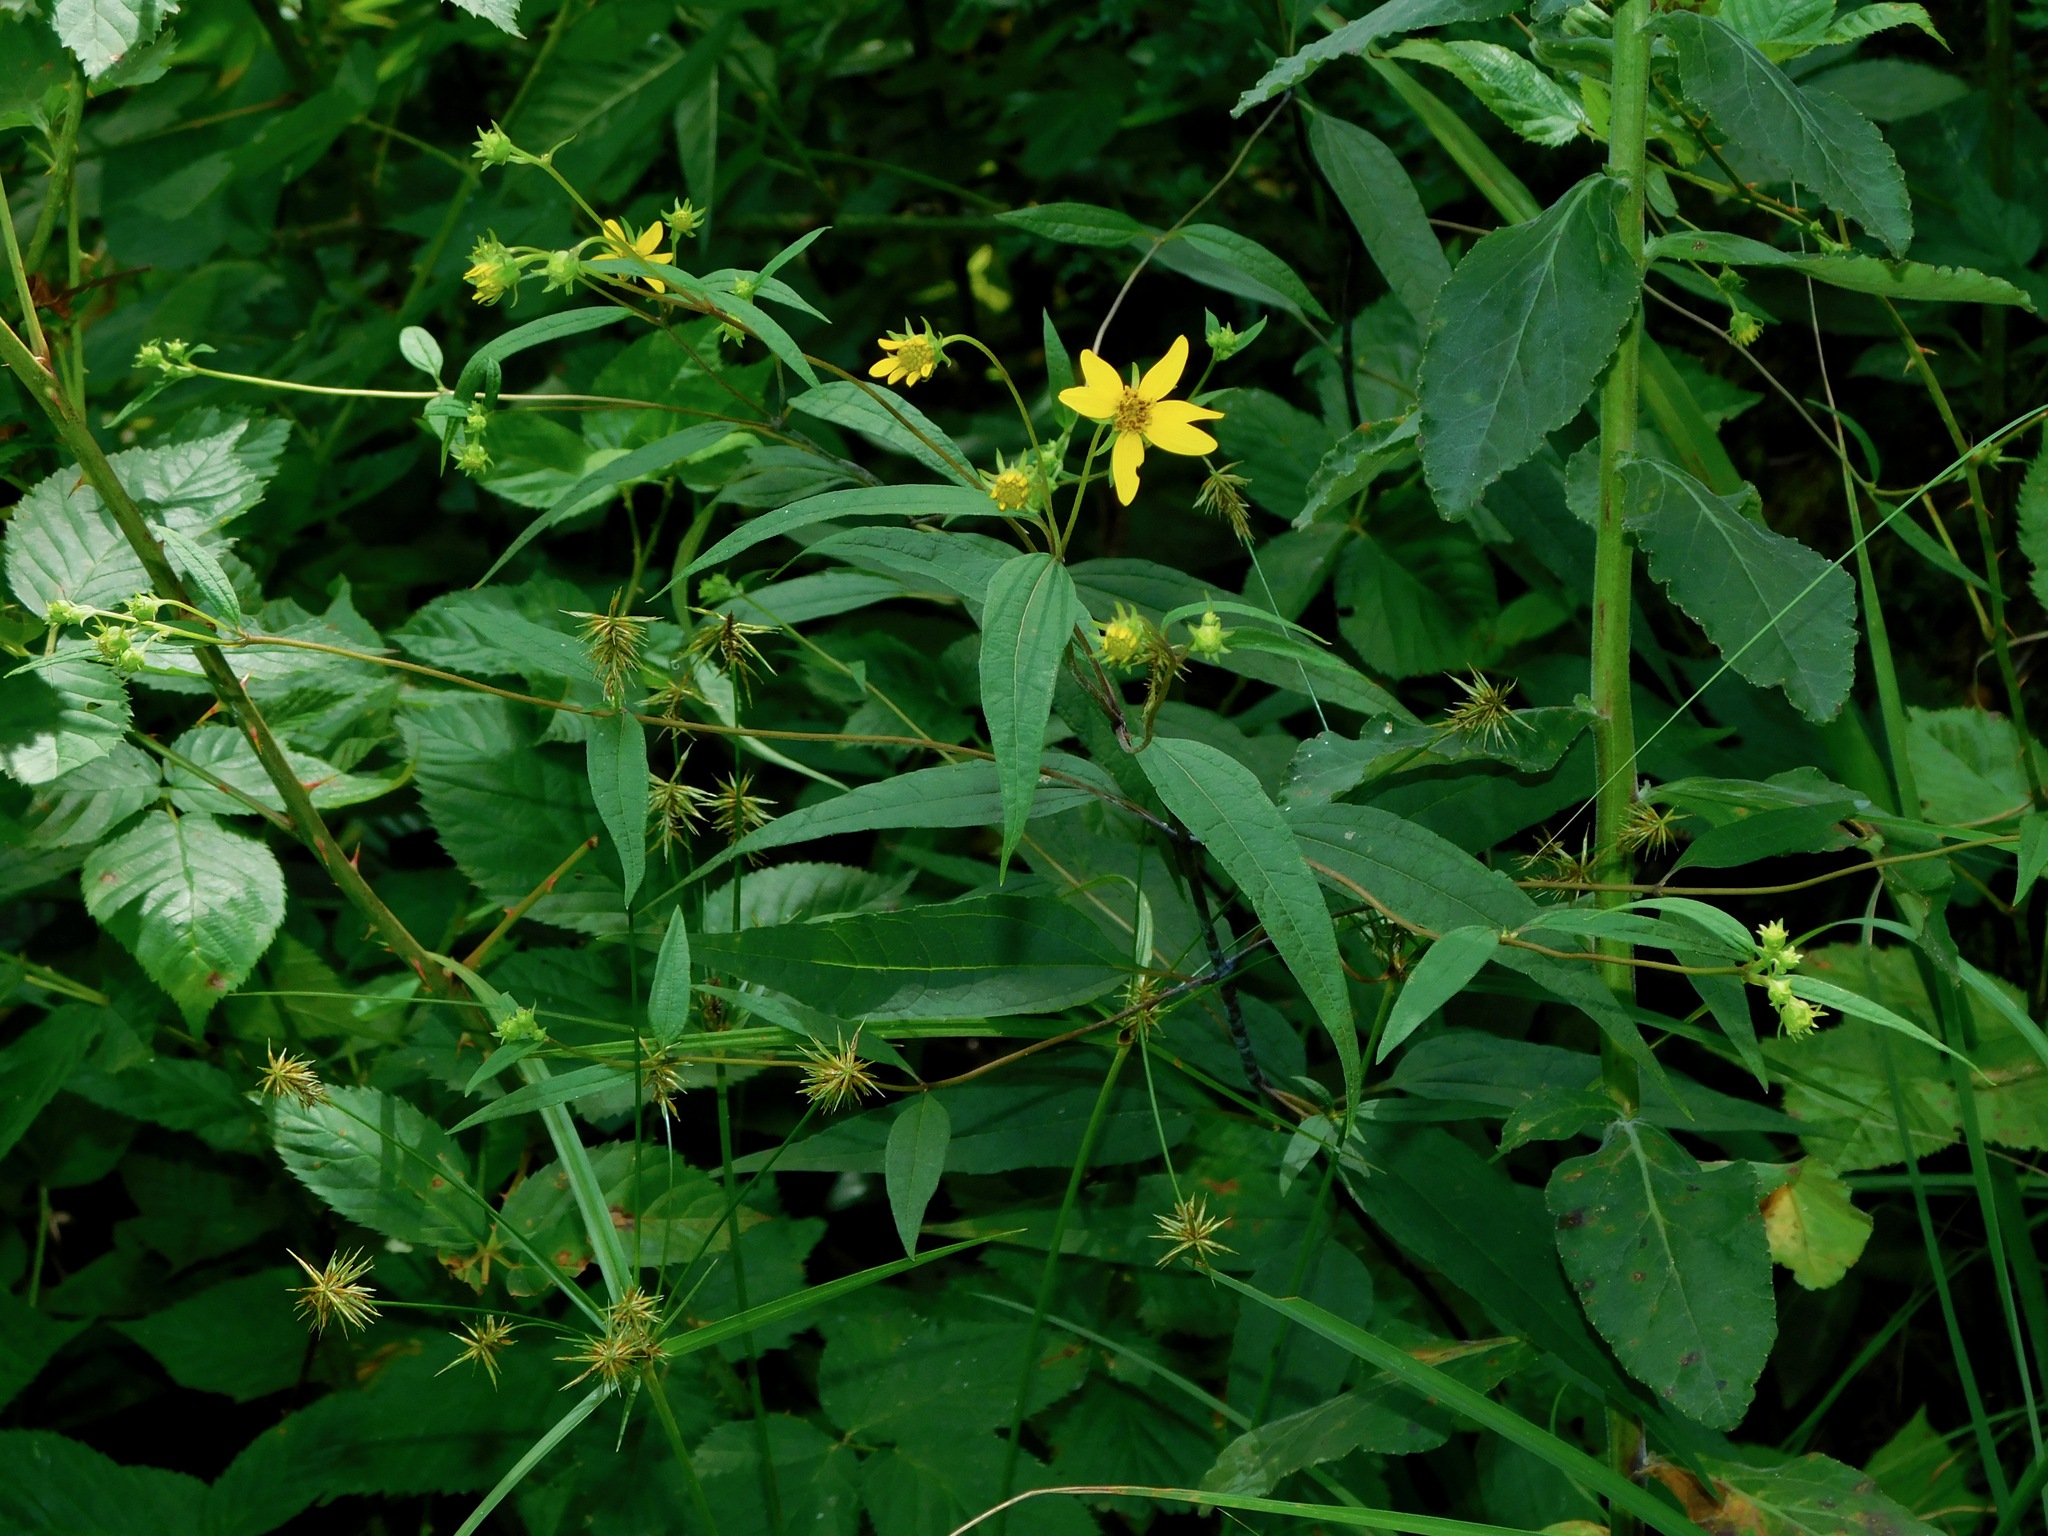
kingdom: Plantae
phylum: Tracheophyta
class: Magnoliopsida
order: Asterales
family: Asteraceae
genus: Helianthus
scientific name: Helianthus microcephalus
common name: Woodland sunflower
